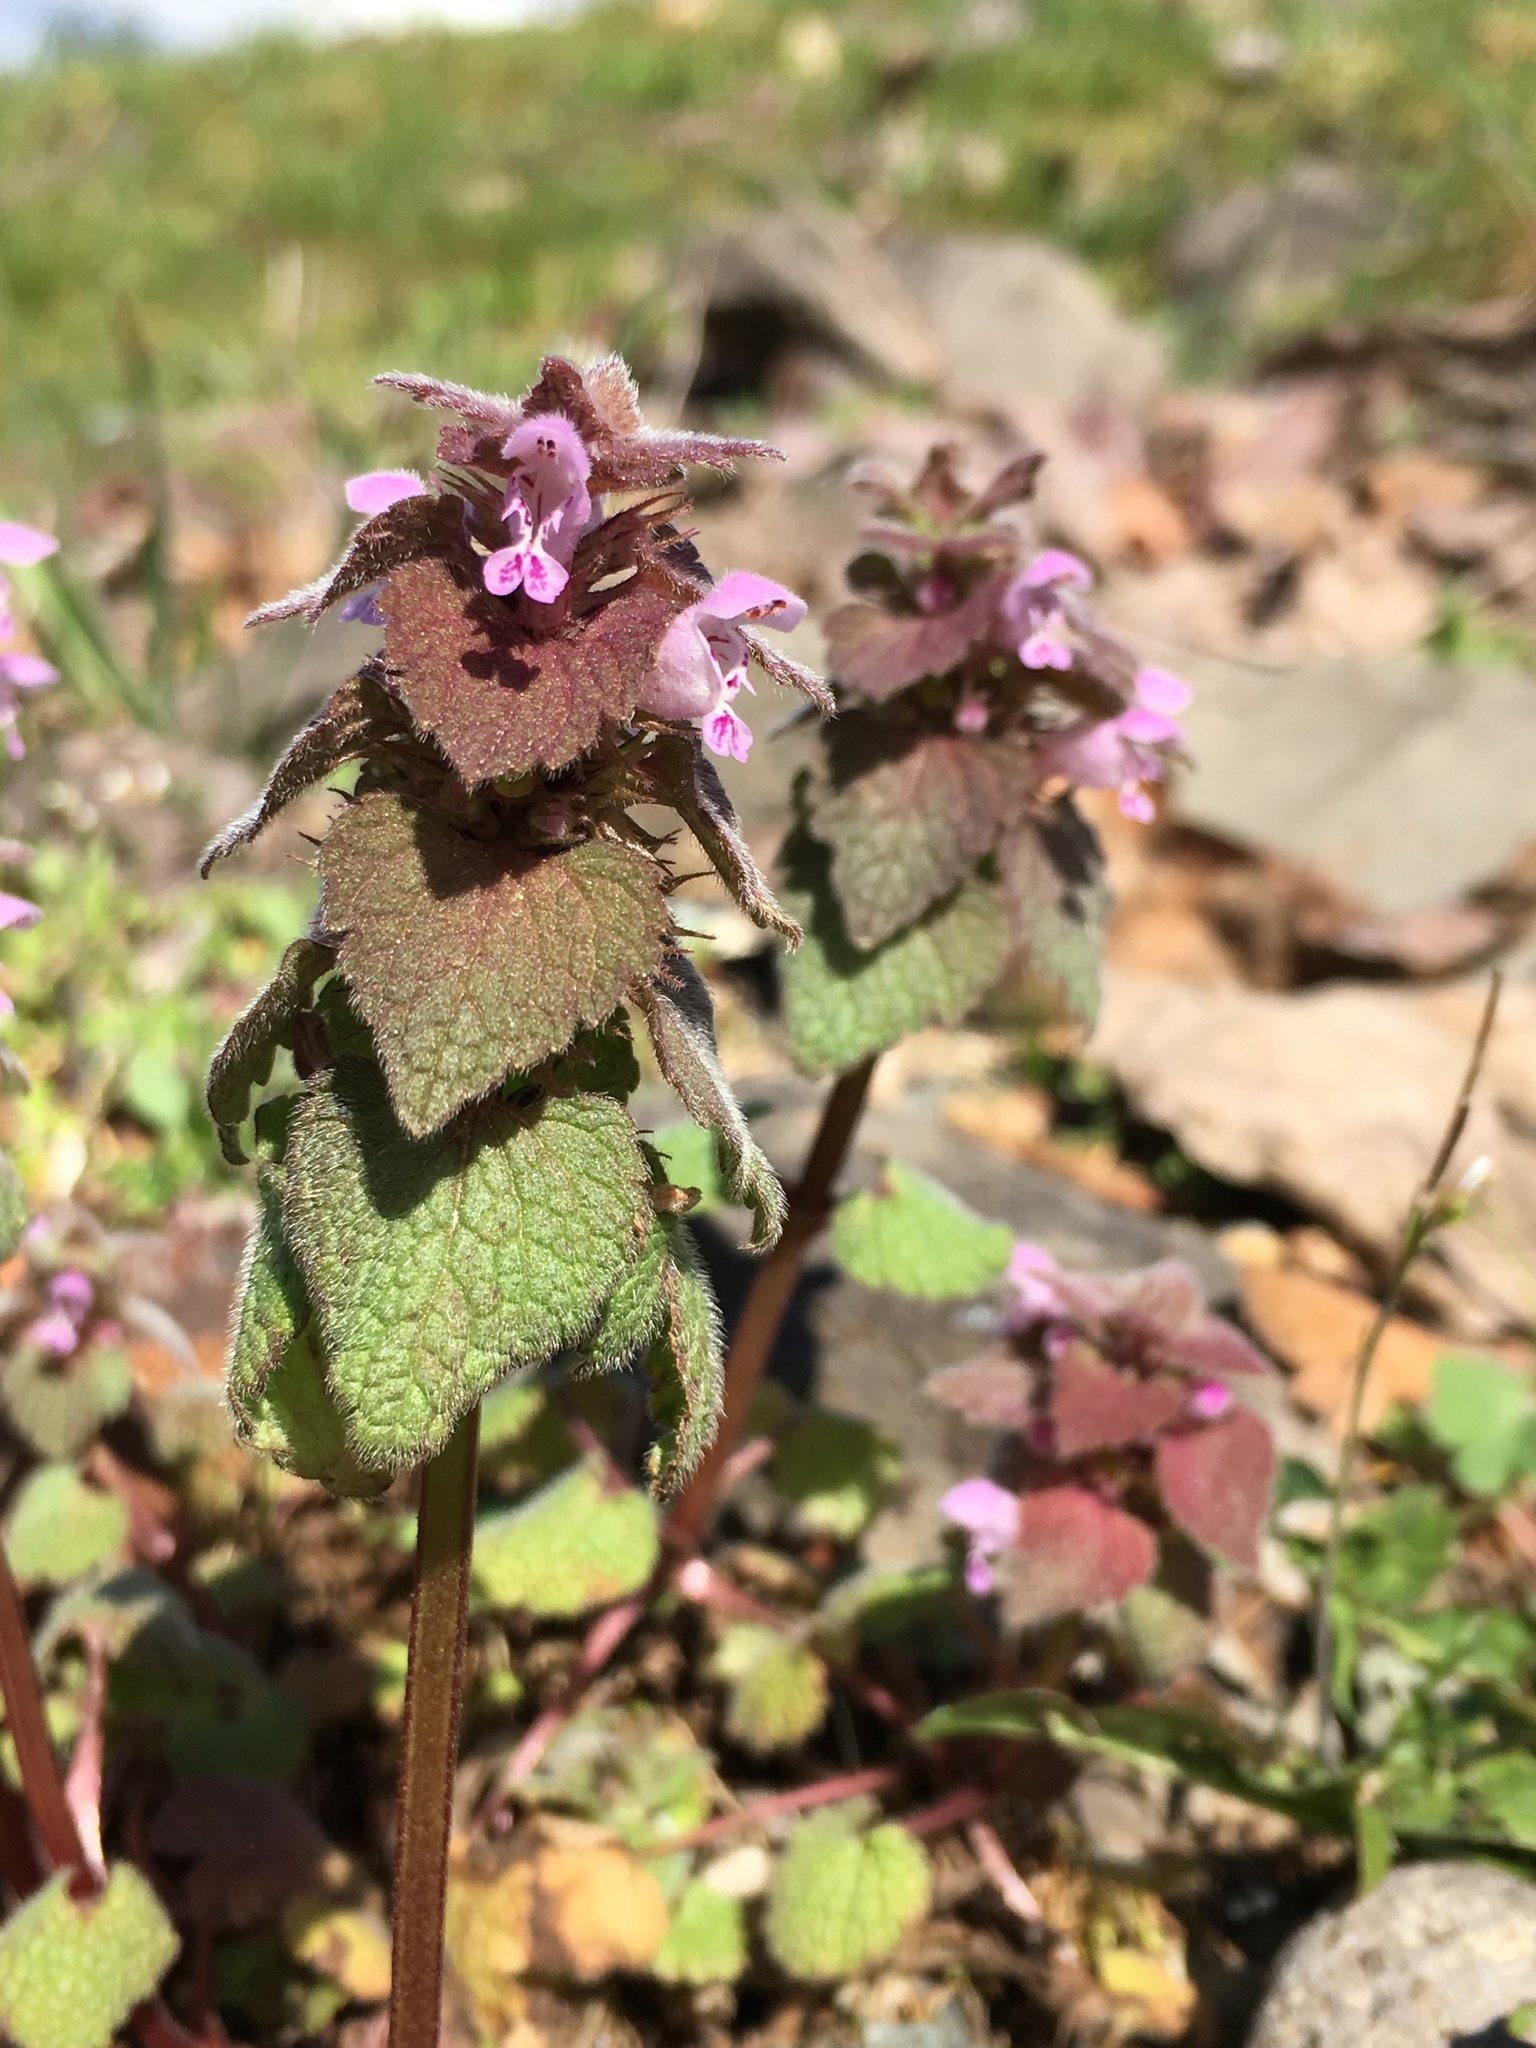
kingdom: Plantae
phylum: Tracheophyta
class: Magnoliopsida
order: Lamiales
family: Lamiaceae
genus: Lamium
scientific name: Lamium purpureum
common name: Red dead-nettle
